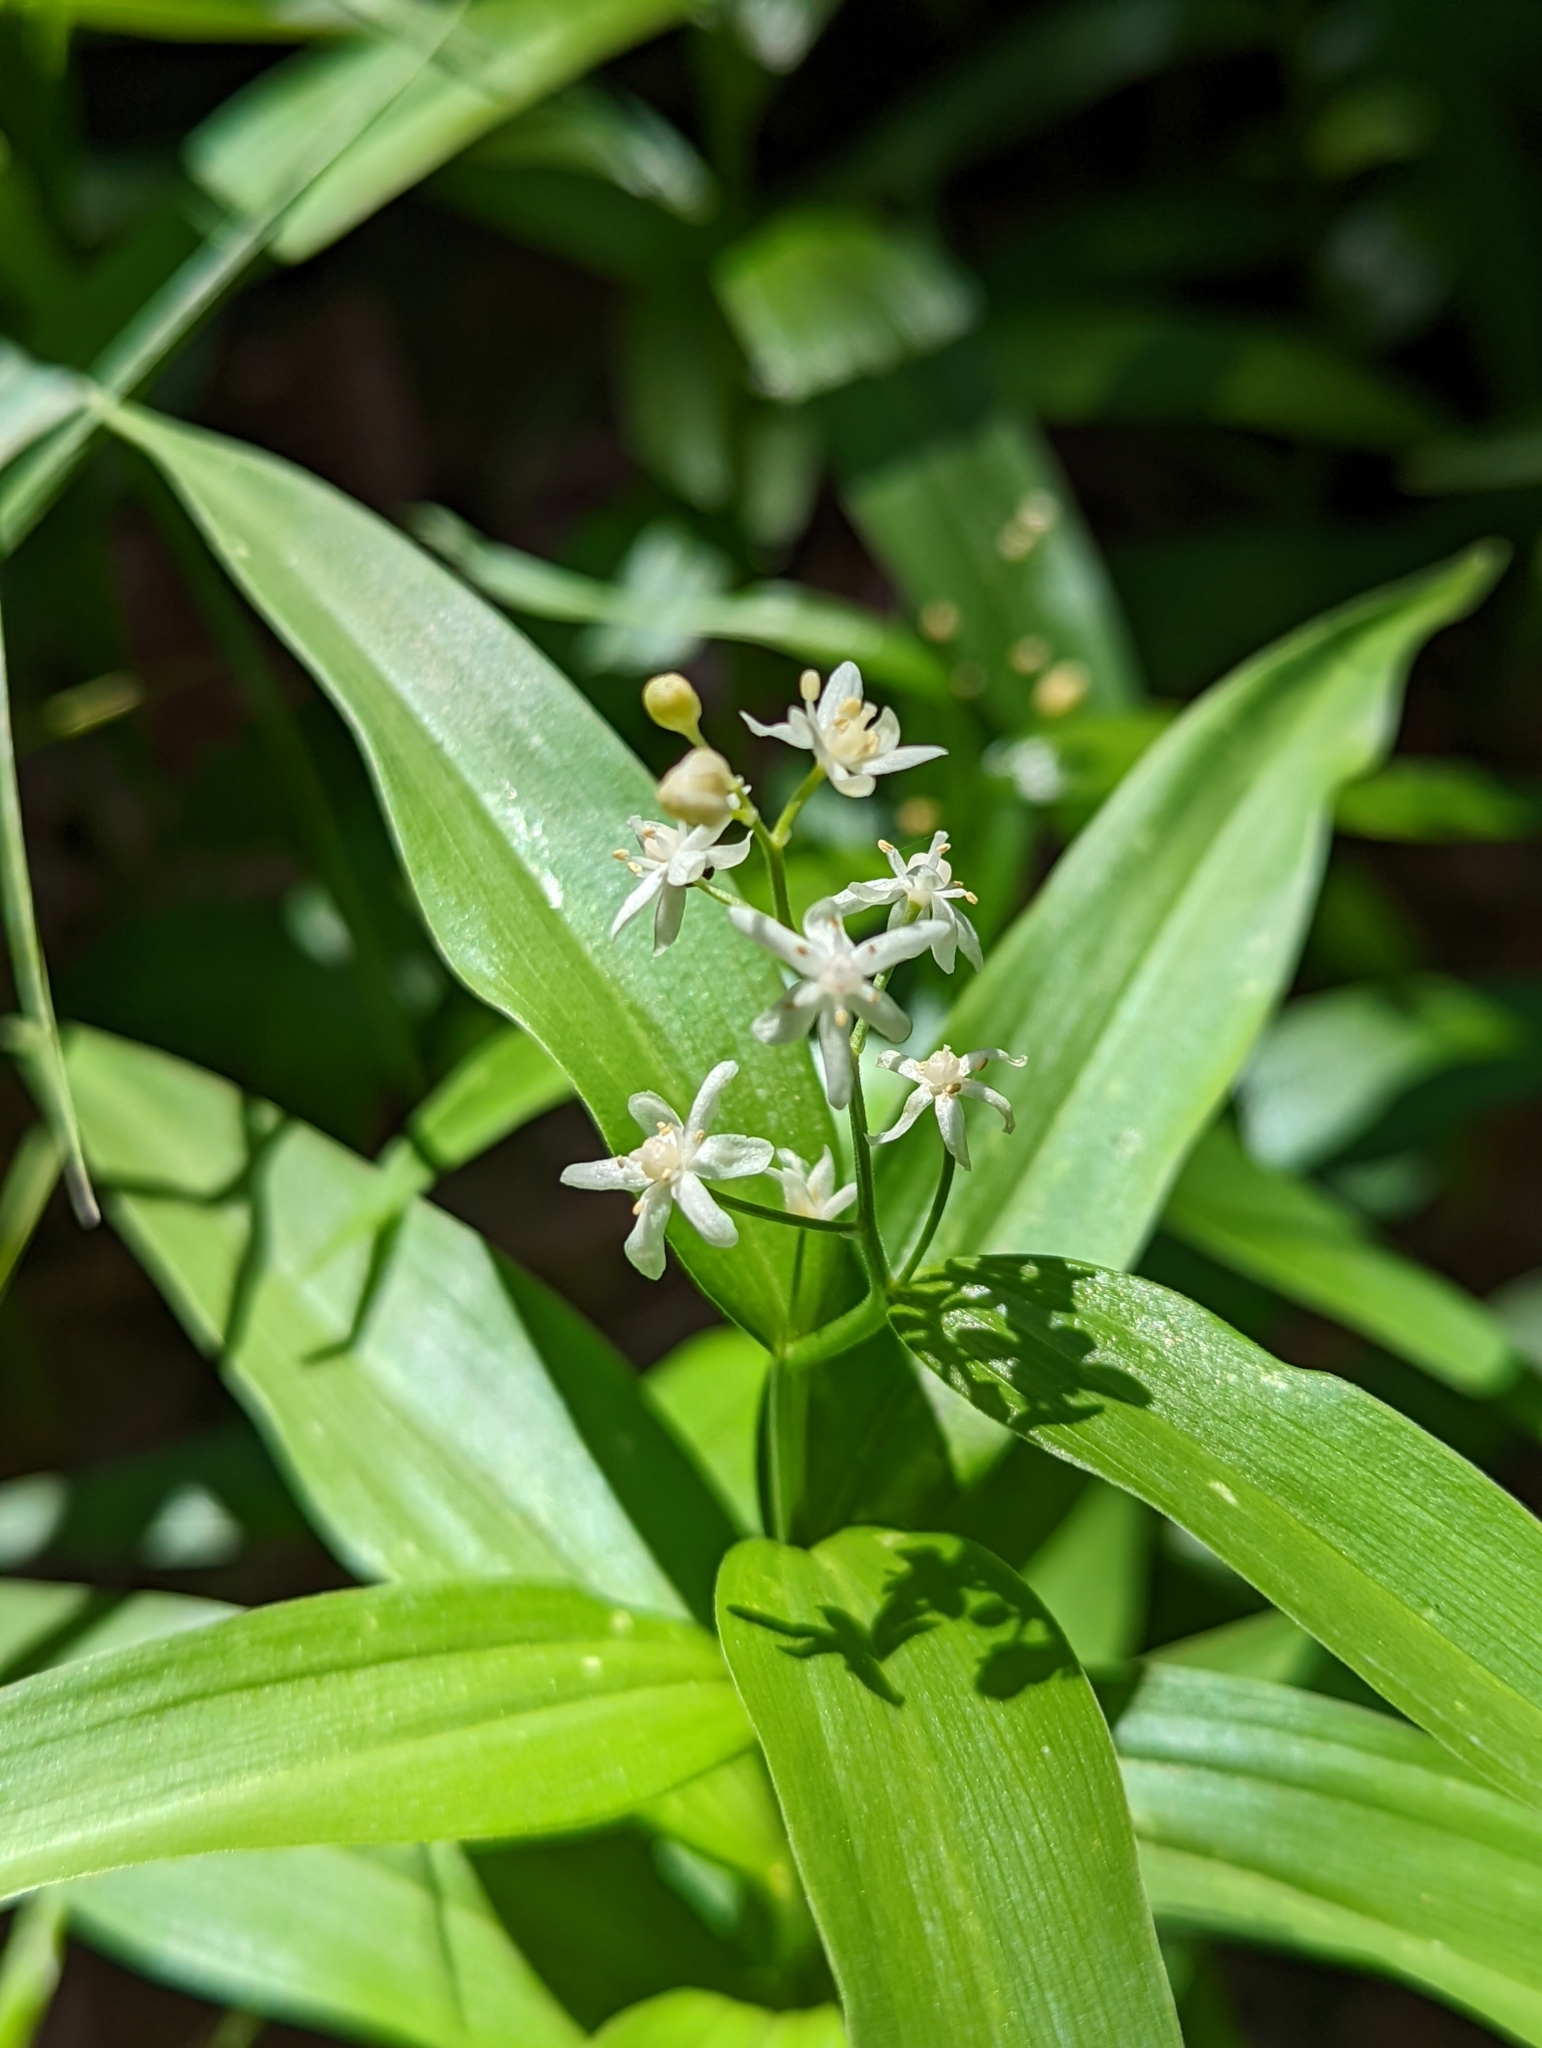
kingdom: Plantae
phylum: Tracheophyta
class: Liliopsida
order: Asparagales
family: Asparagaceae
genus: Maianthemum
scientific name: Maianthemum stellatum
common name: Little false solomon's seal
